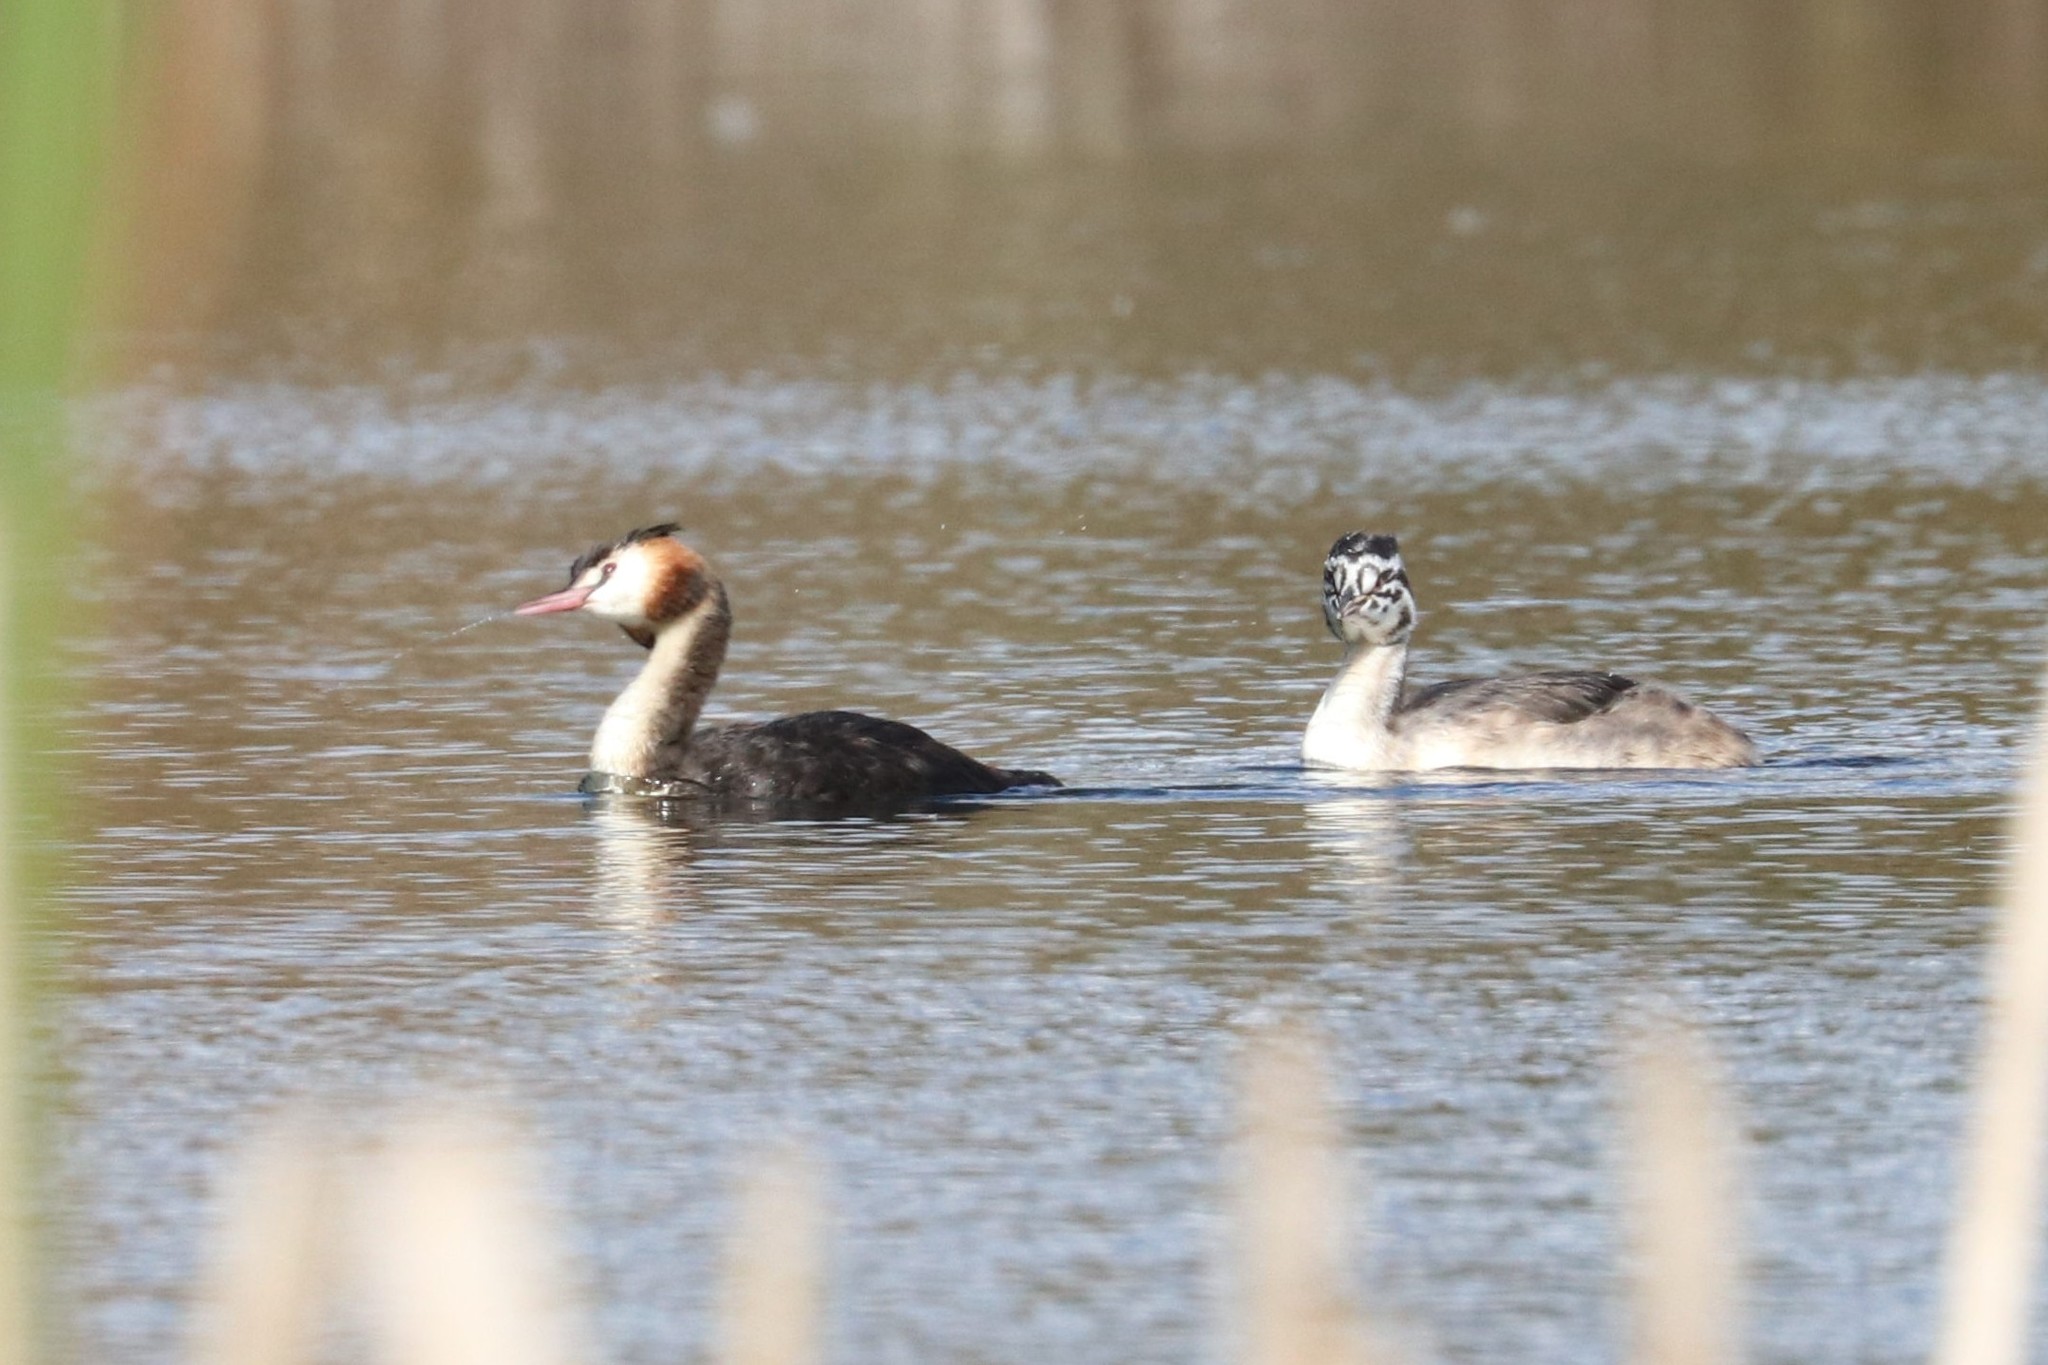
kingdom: Animalia
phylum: Chordata
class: Aves
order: Podicipediformes
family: Podicipedidae
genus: Podiceps
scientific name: Podiceps cristatus
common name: Great crested grebe
